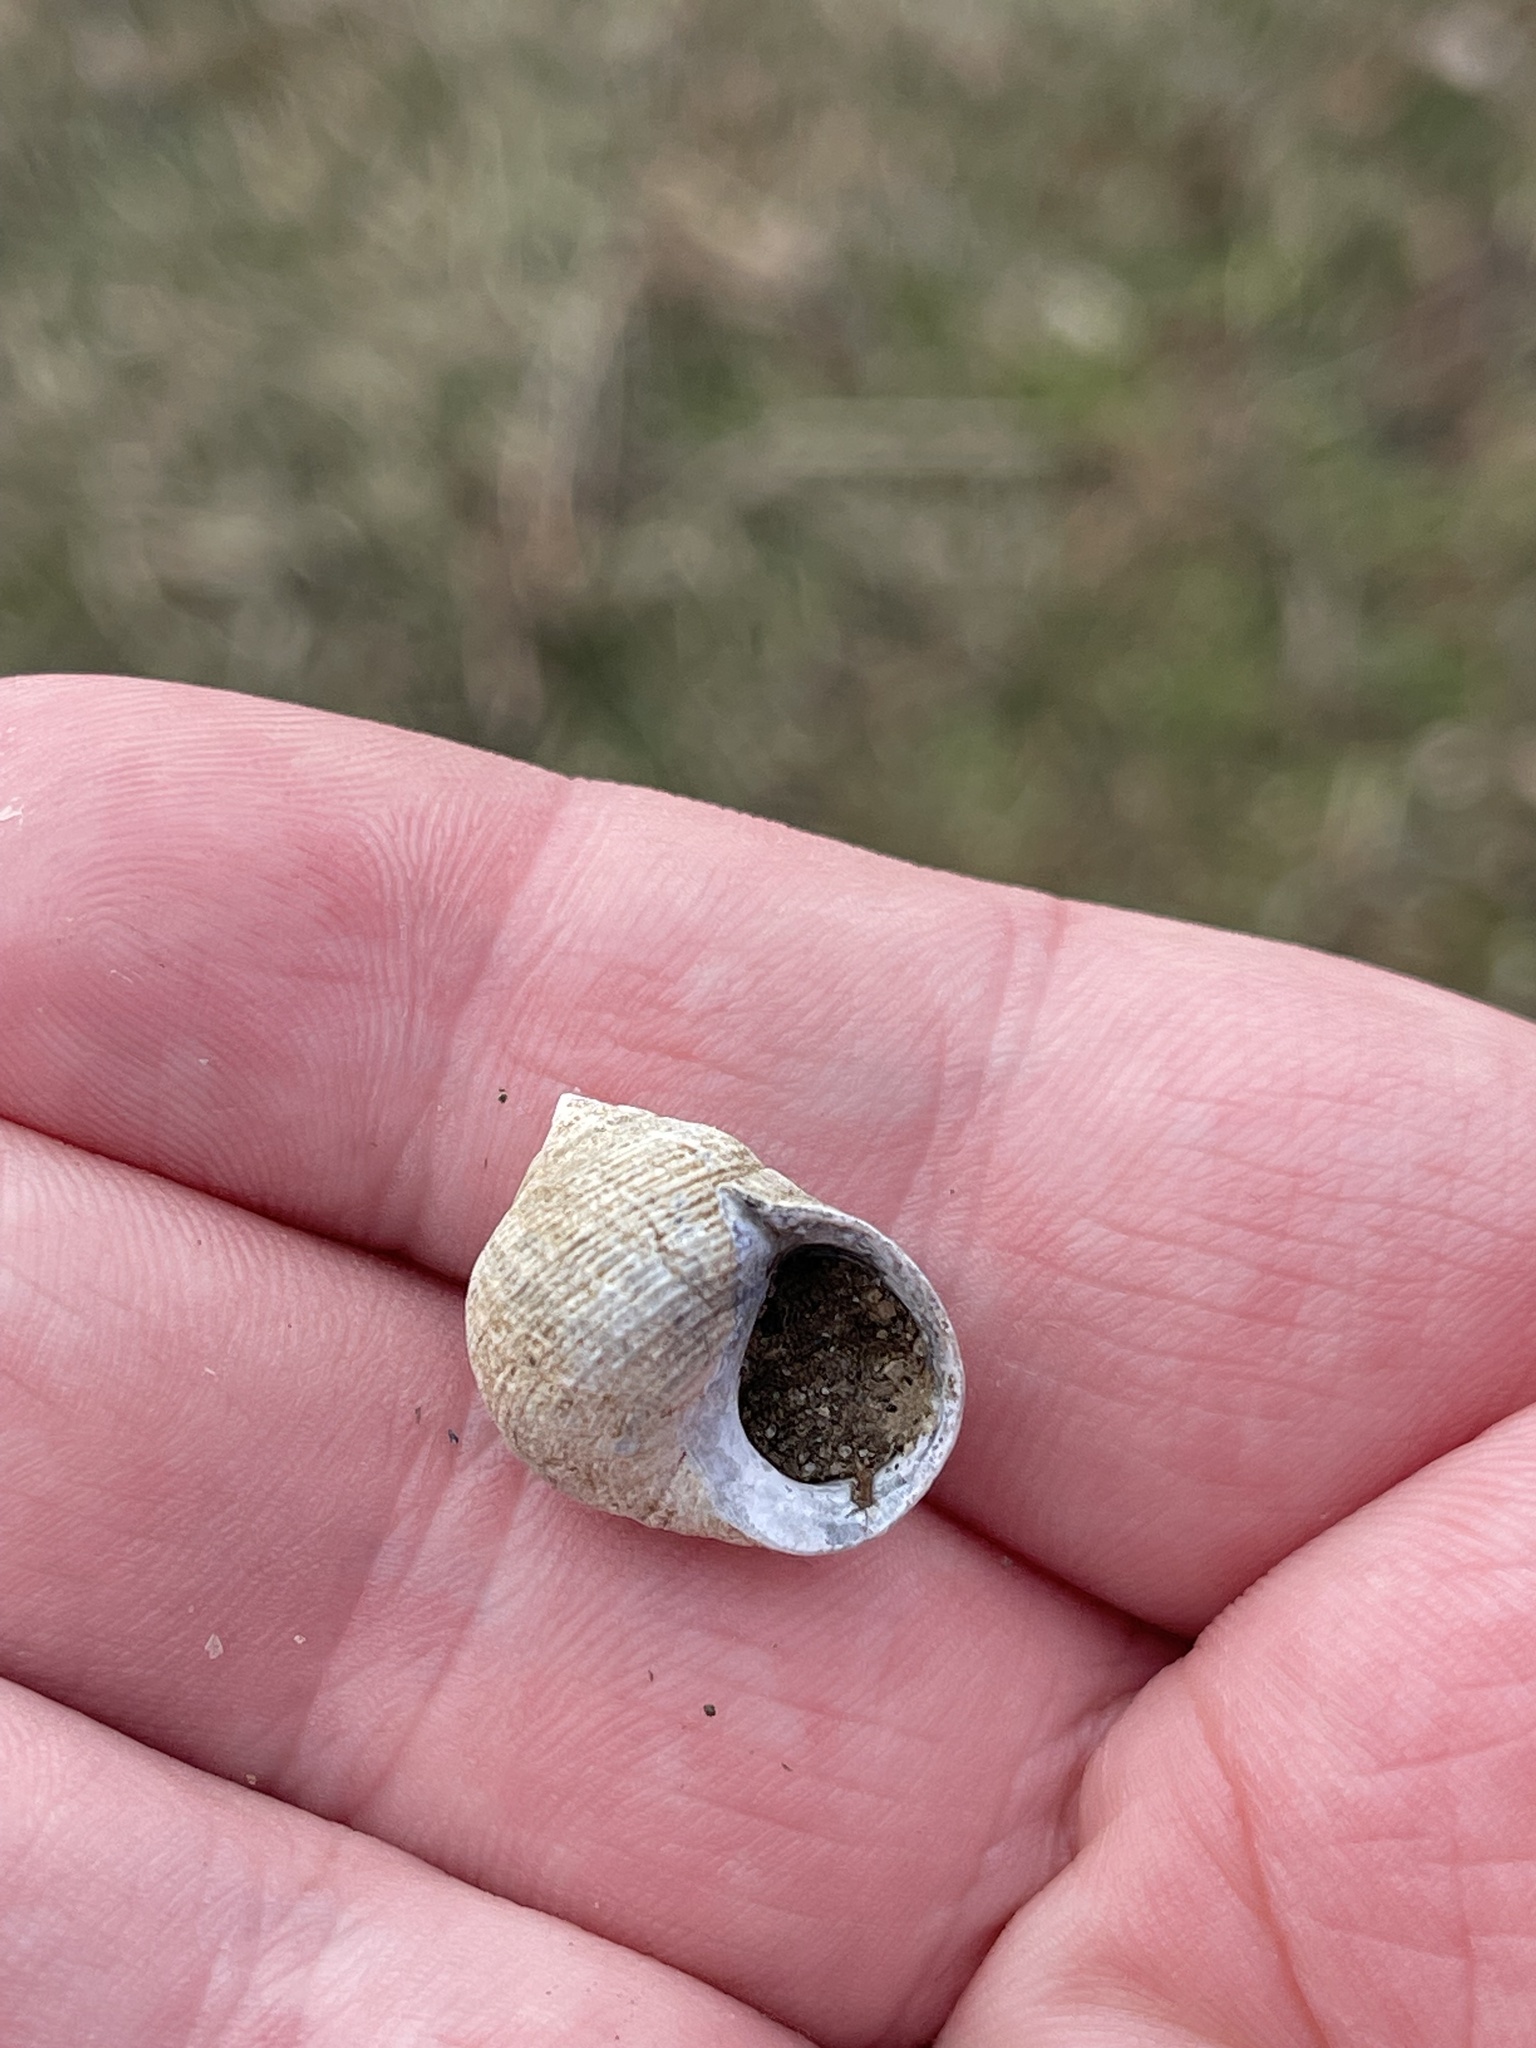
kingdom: Animalia
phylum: Mollusca
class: Gastropoda
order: Littorinimorpha
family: Littorinidae
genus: Littorina
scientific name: Littorina littorea
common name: Common periwinkle
